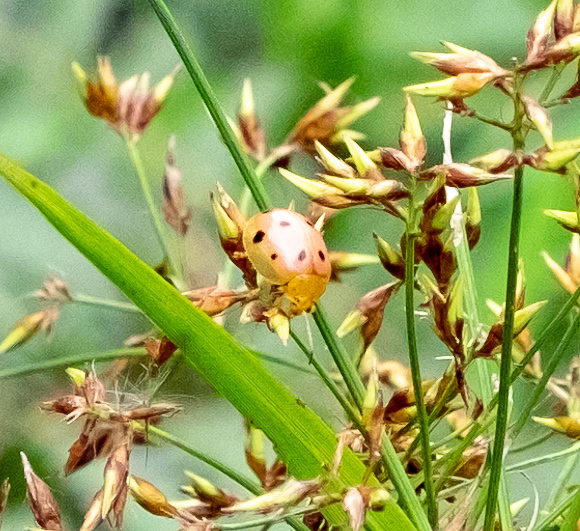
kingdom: Animalia
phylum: Arthropoda
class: Insecta
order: Coleoptera
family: Chrysomelidae
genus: Oides
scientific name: Oides decempunctata
